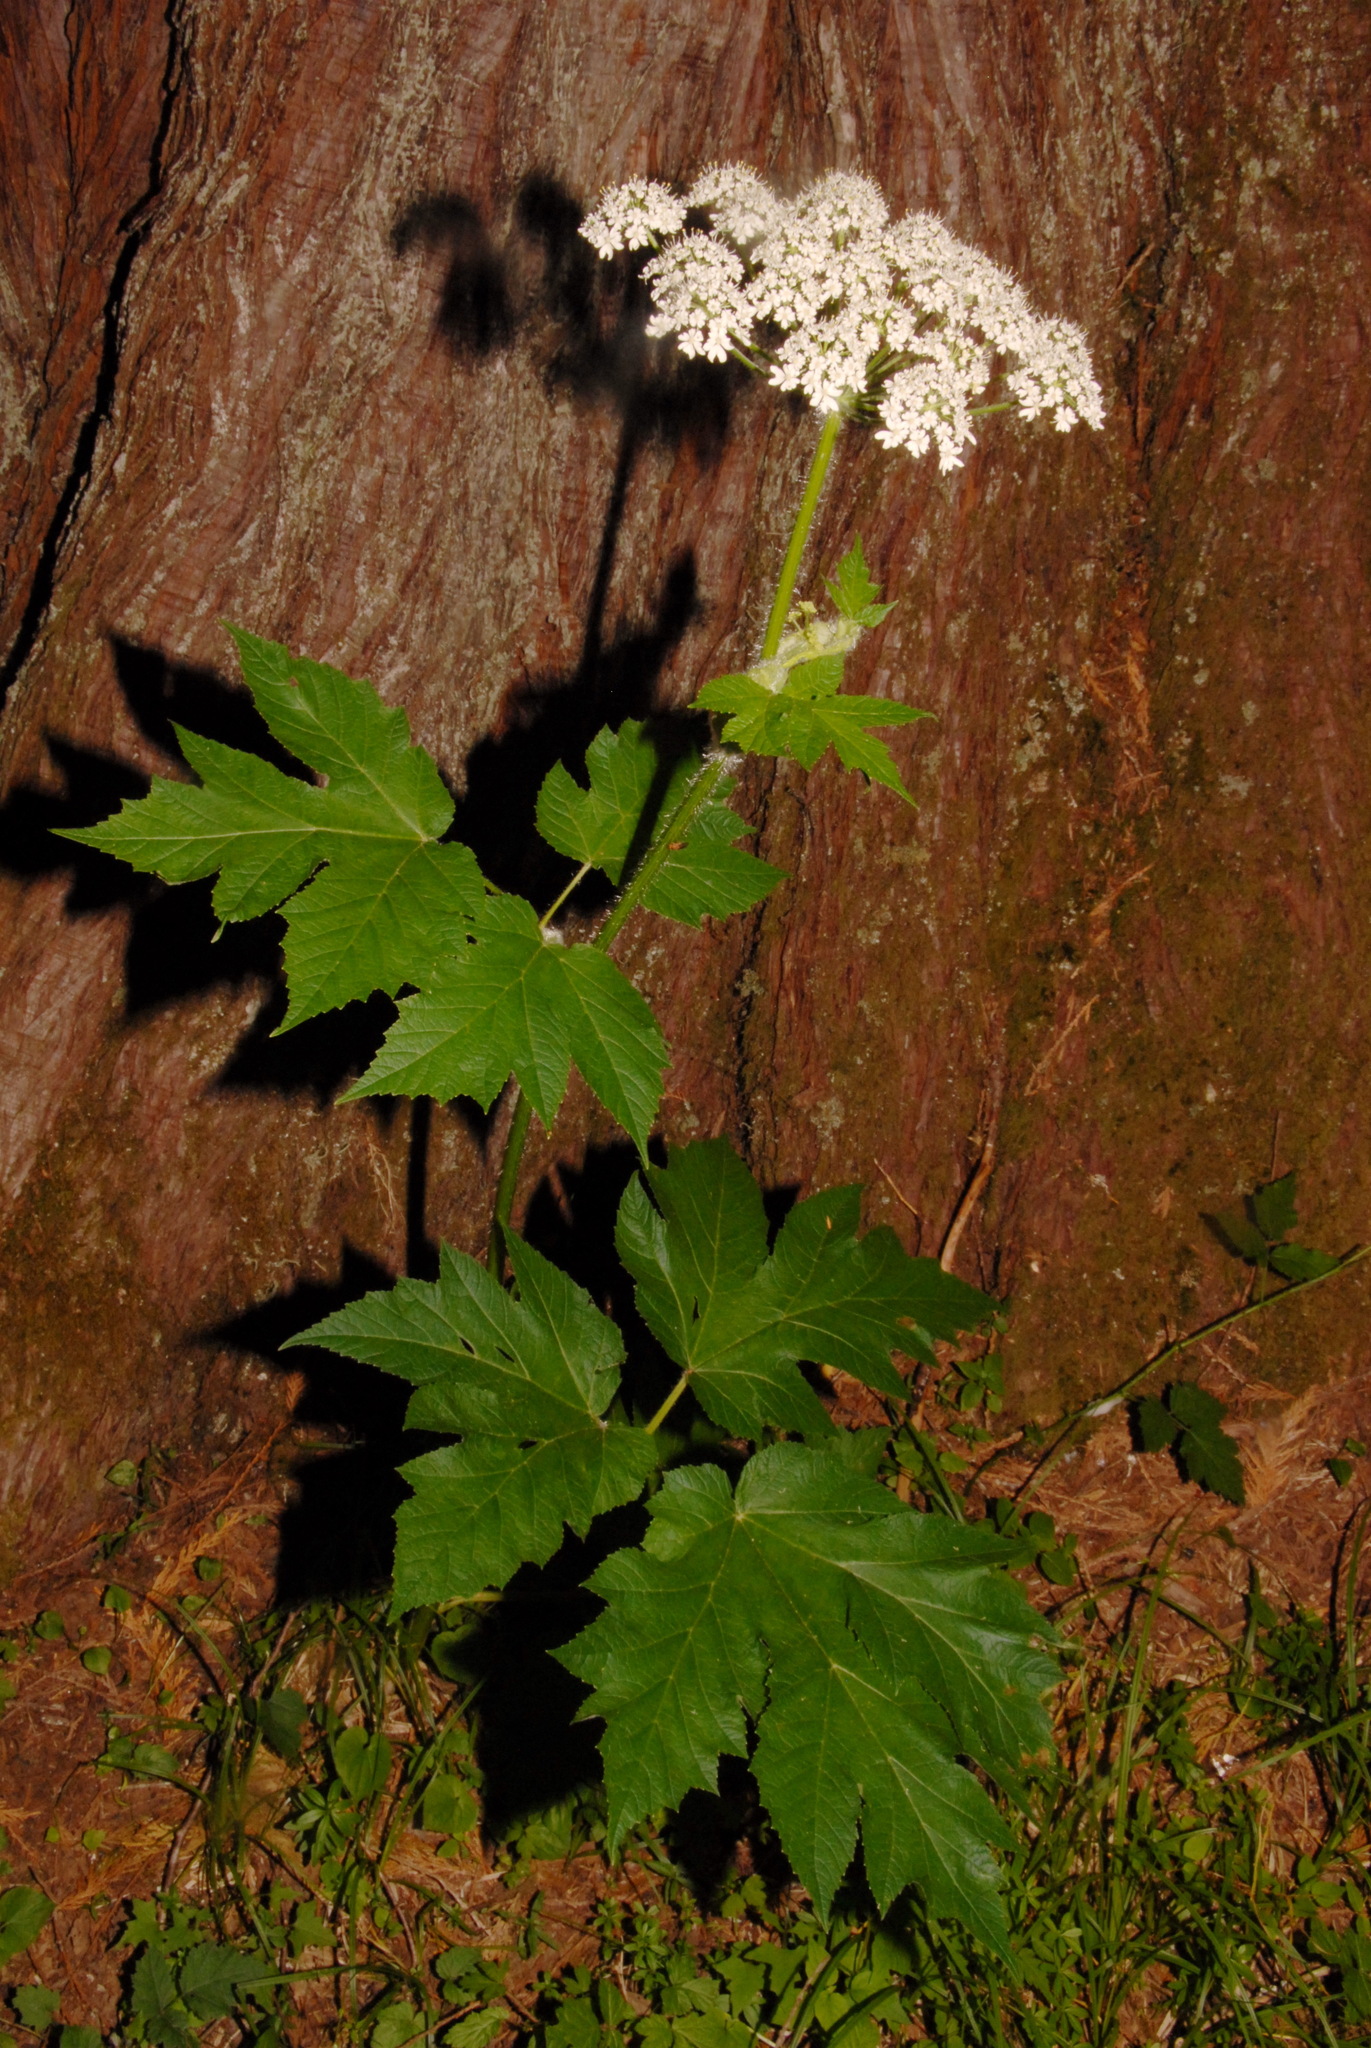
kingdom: Plantae
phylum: Tracheophyta
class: Magnoliopsida
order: Apiales
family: Apiaceae
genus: Heracleum
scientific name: Heracleum maximum
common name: American cow parsnip
